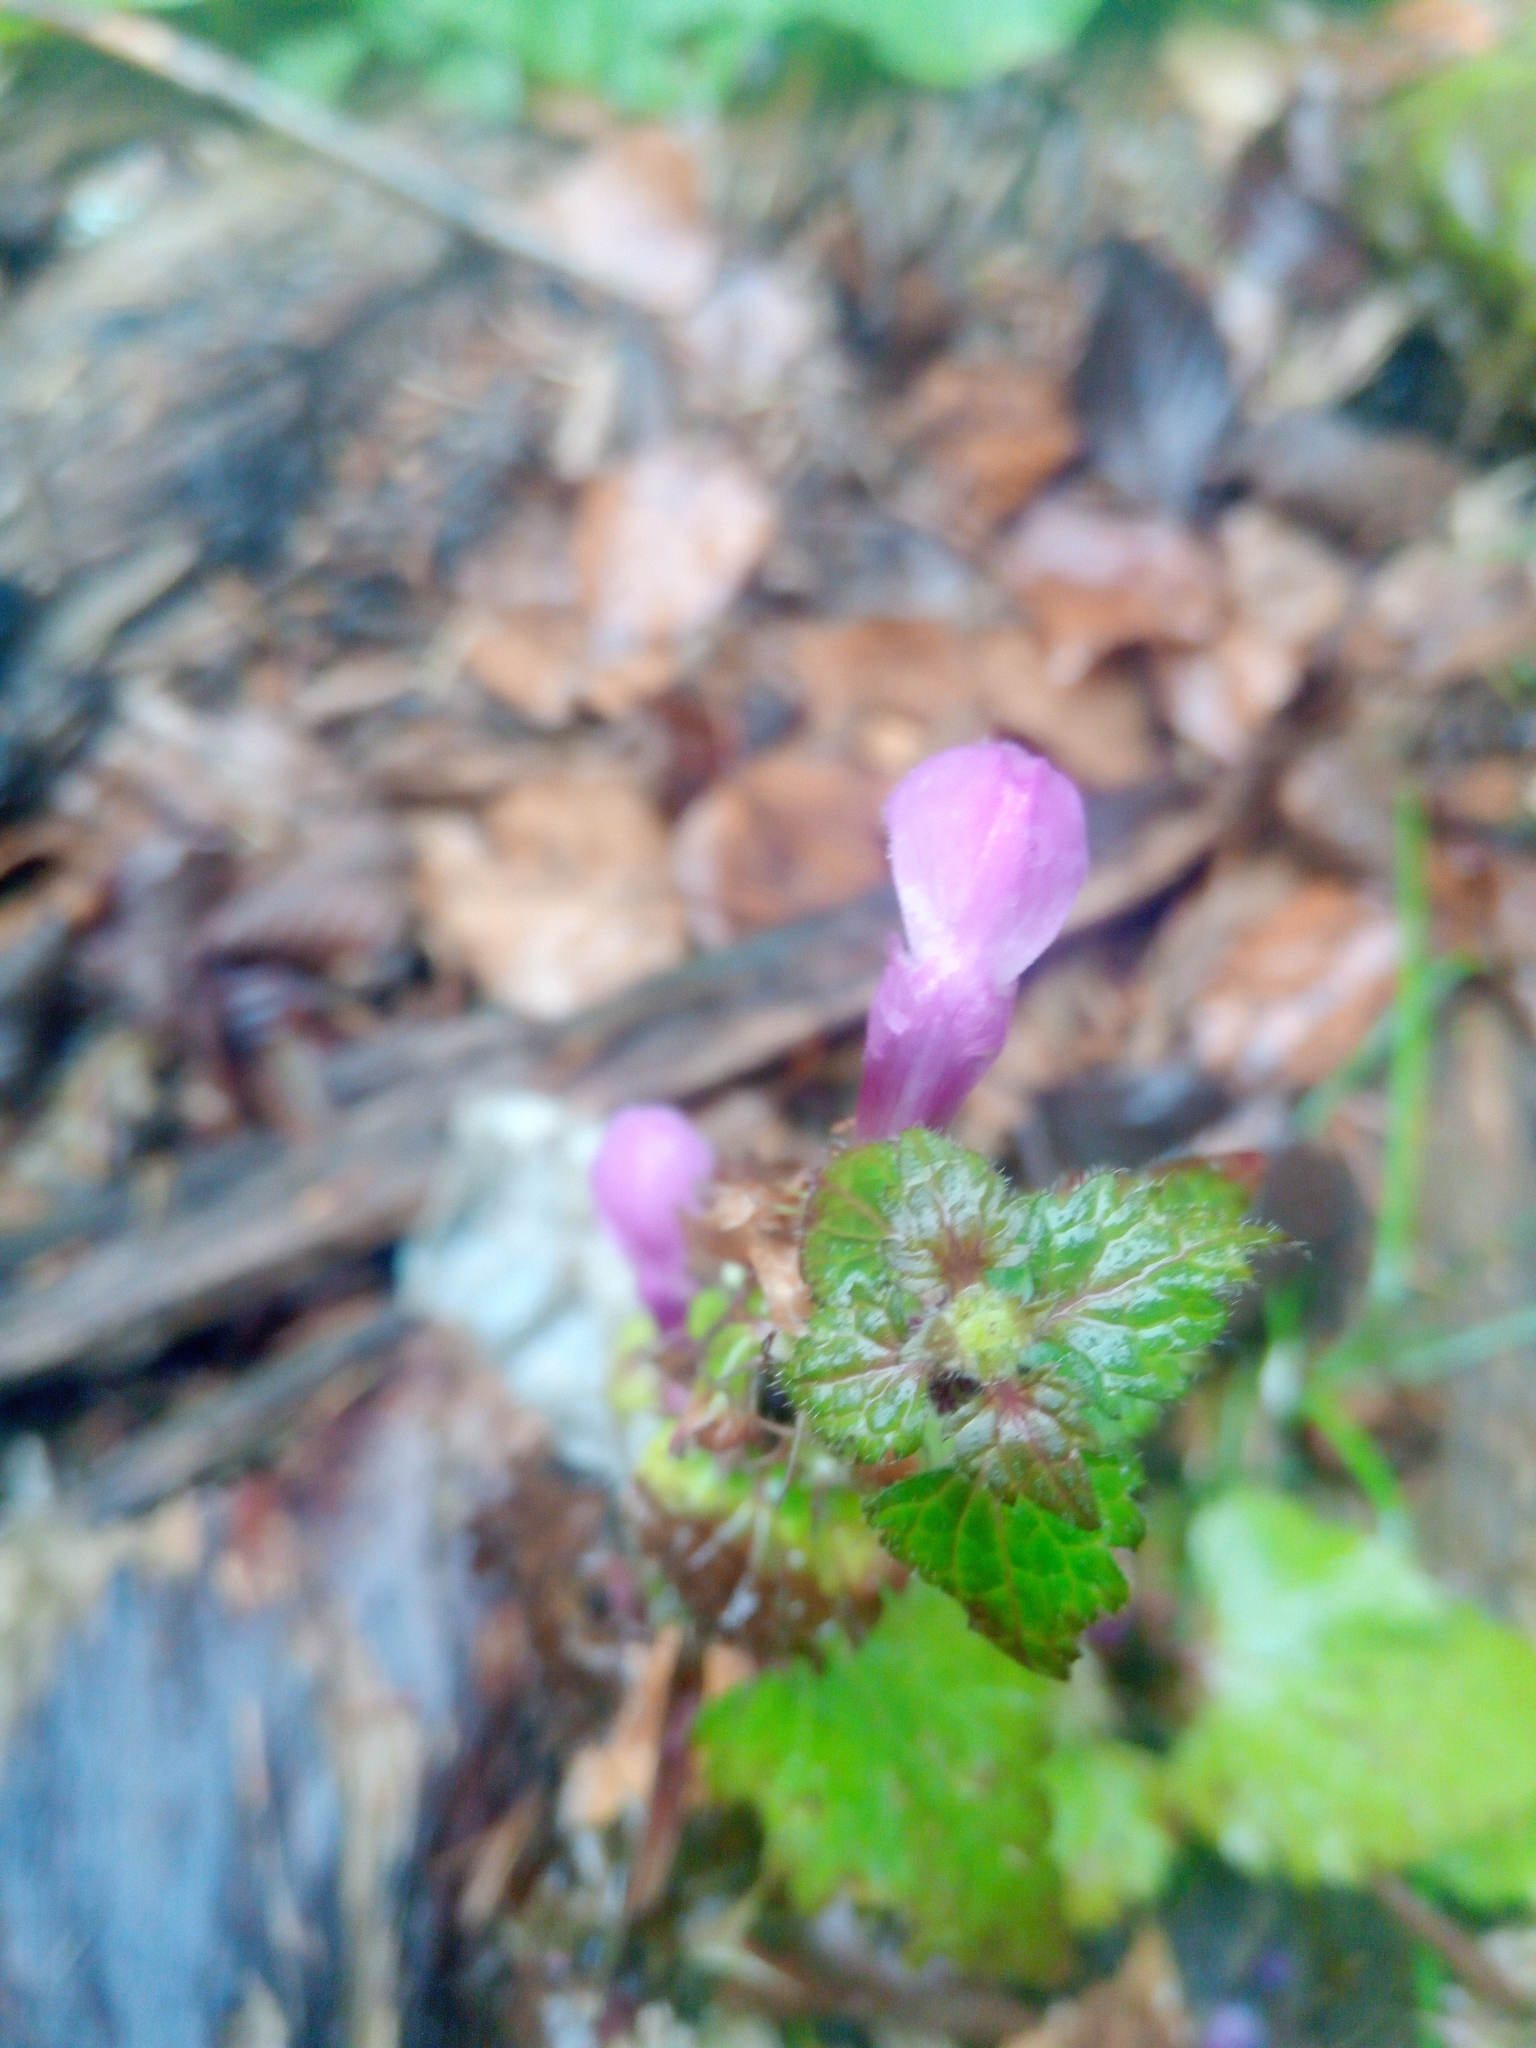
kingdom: Plantae
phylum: Tracheophyta
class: Magnoliopsida
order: Lamiales
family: Lamiaceae
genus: Lamium
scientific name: Lamium maculatum
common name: Spotted dead-nettle
